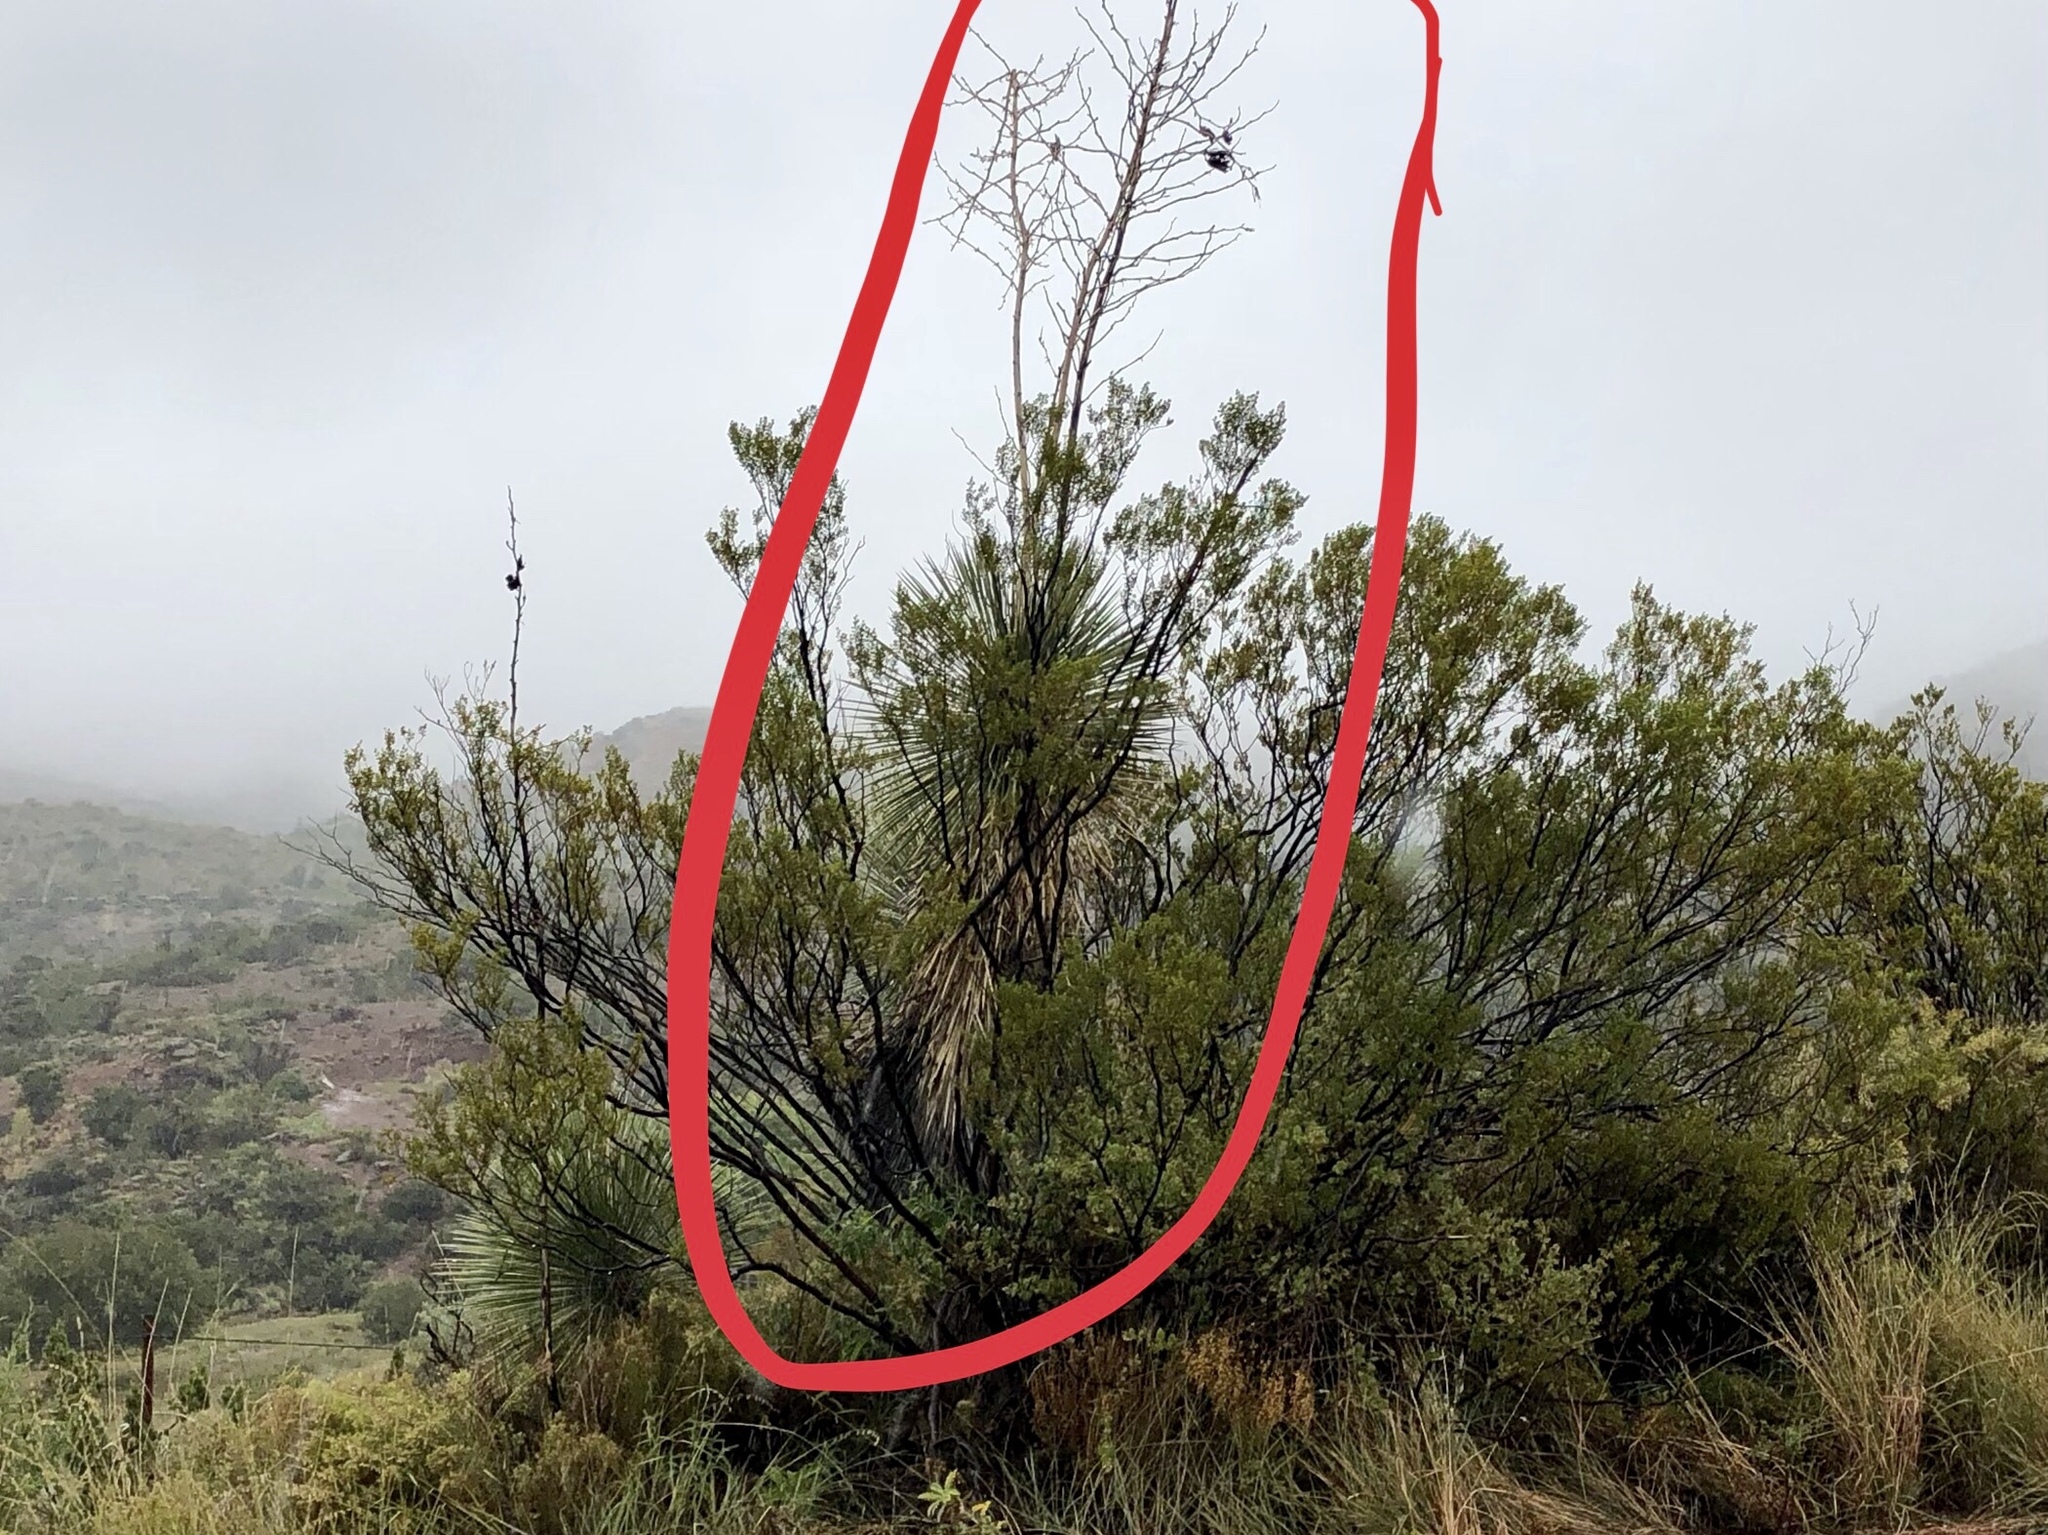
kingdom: Plantae
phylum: Tracheophyta
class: Liliopsida
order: Asparagales
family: Asparagaceae
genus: Yucca
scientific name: Yucca elata
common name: Palmella
